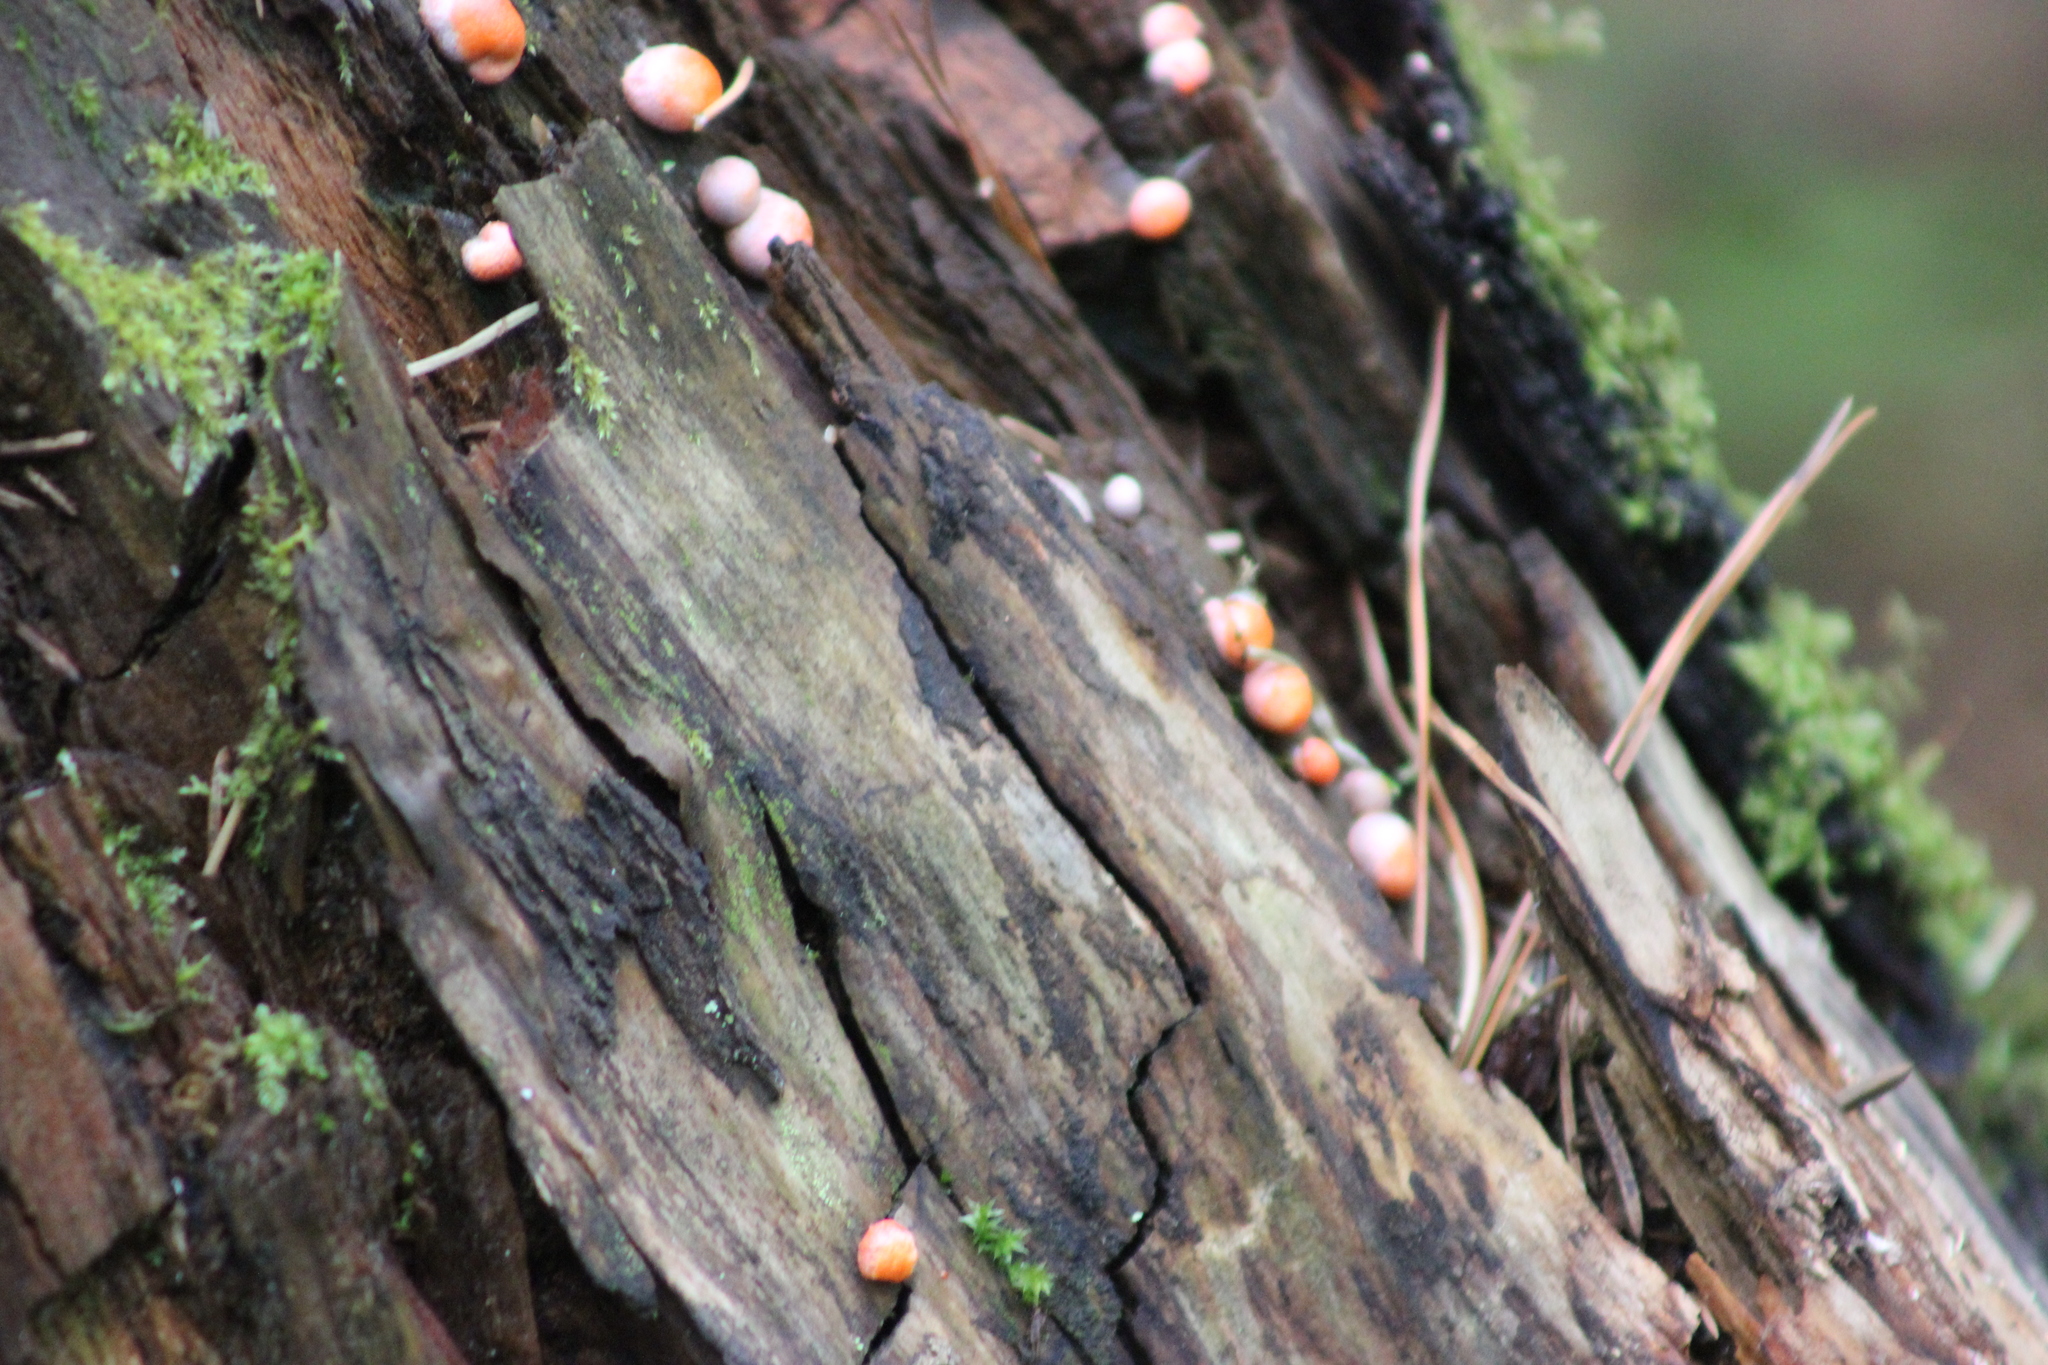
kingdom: Protozoa
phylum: Mycetozoa
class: Myxomycetes
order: Cribrariales
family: Tubiferaceae
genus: Lycogala
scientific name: Lycogala epidendrum
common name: Wolf's milk
